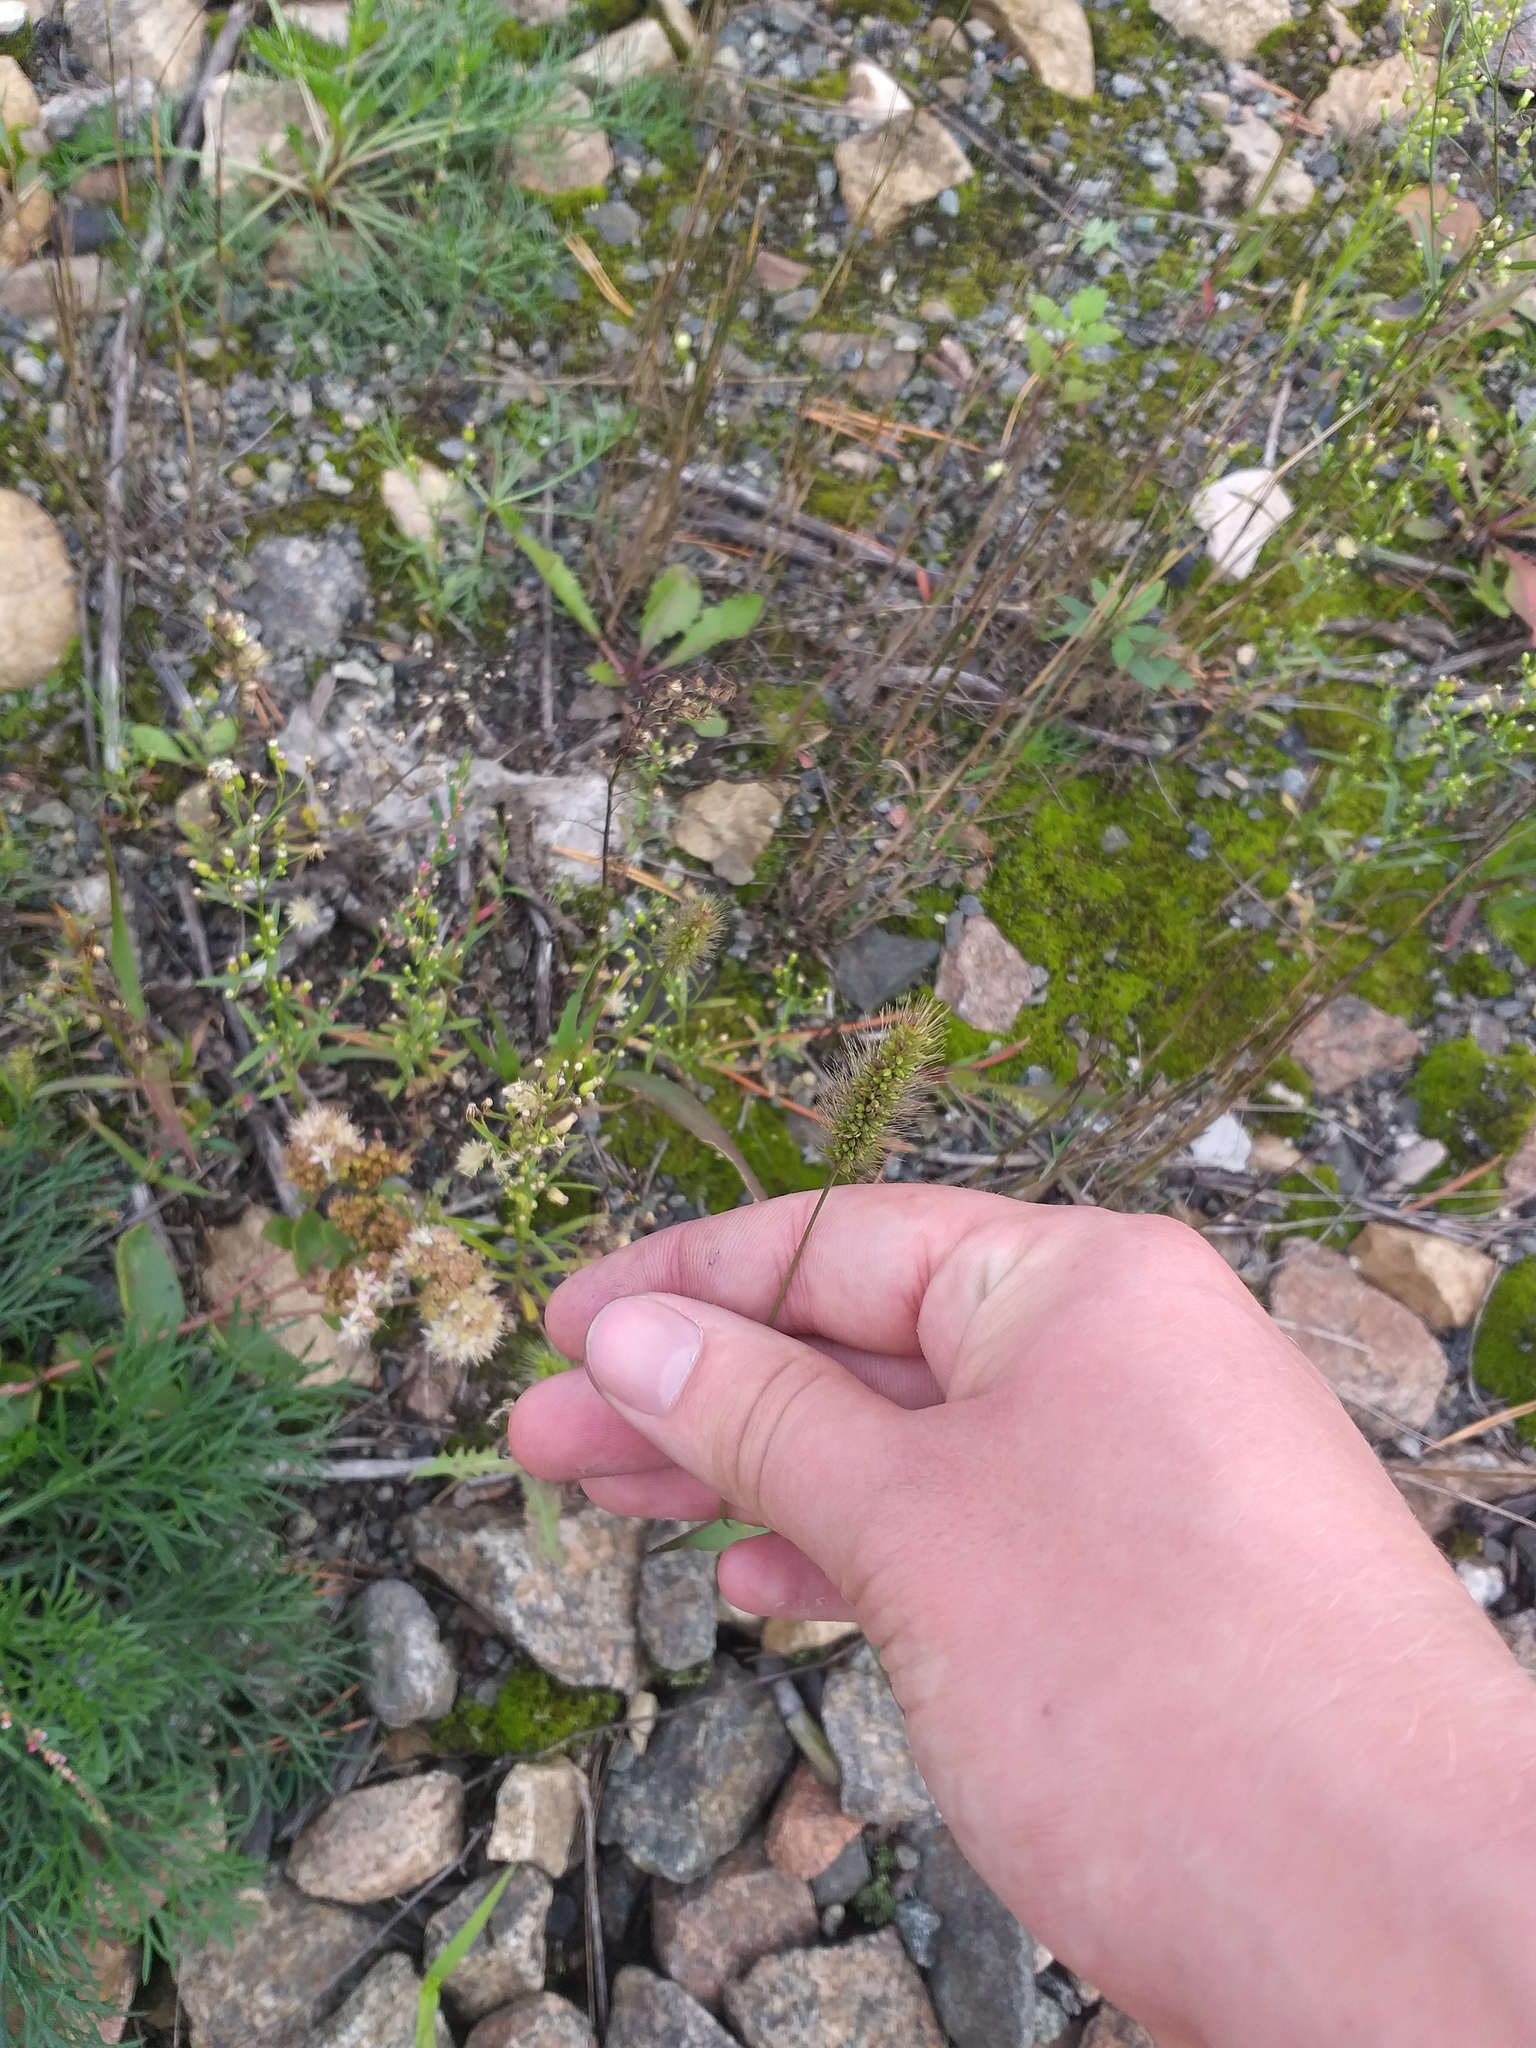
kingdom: Plantae
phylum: Tracheophyta
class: Liliopsida
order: Poales
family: Poaceae
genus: Setaria
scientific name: Setaria viridis
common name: Green bristlegrass
